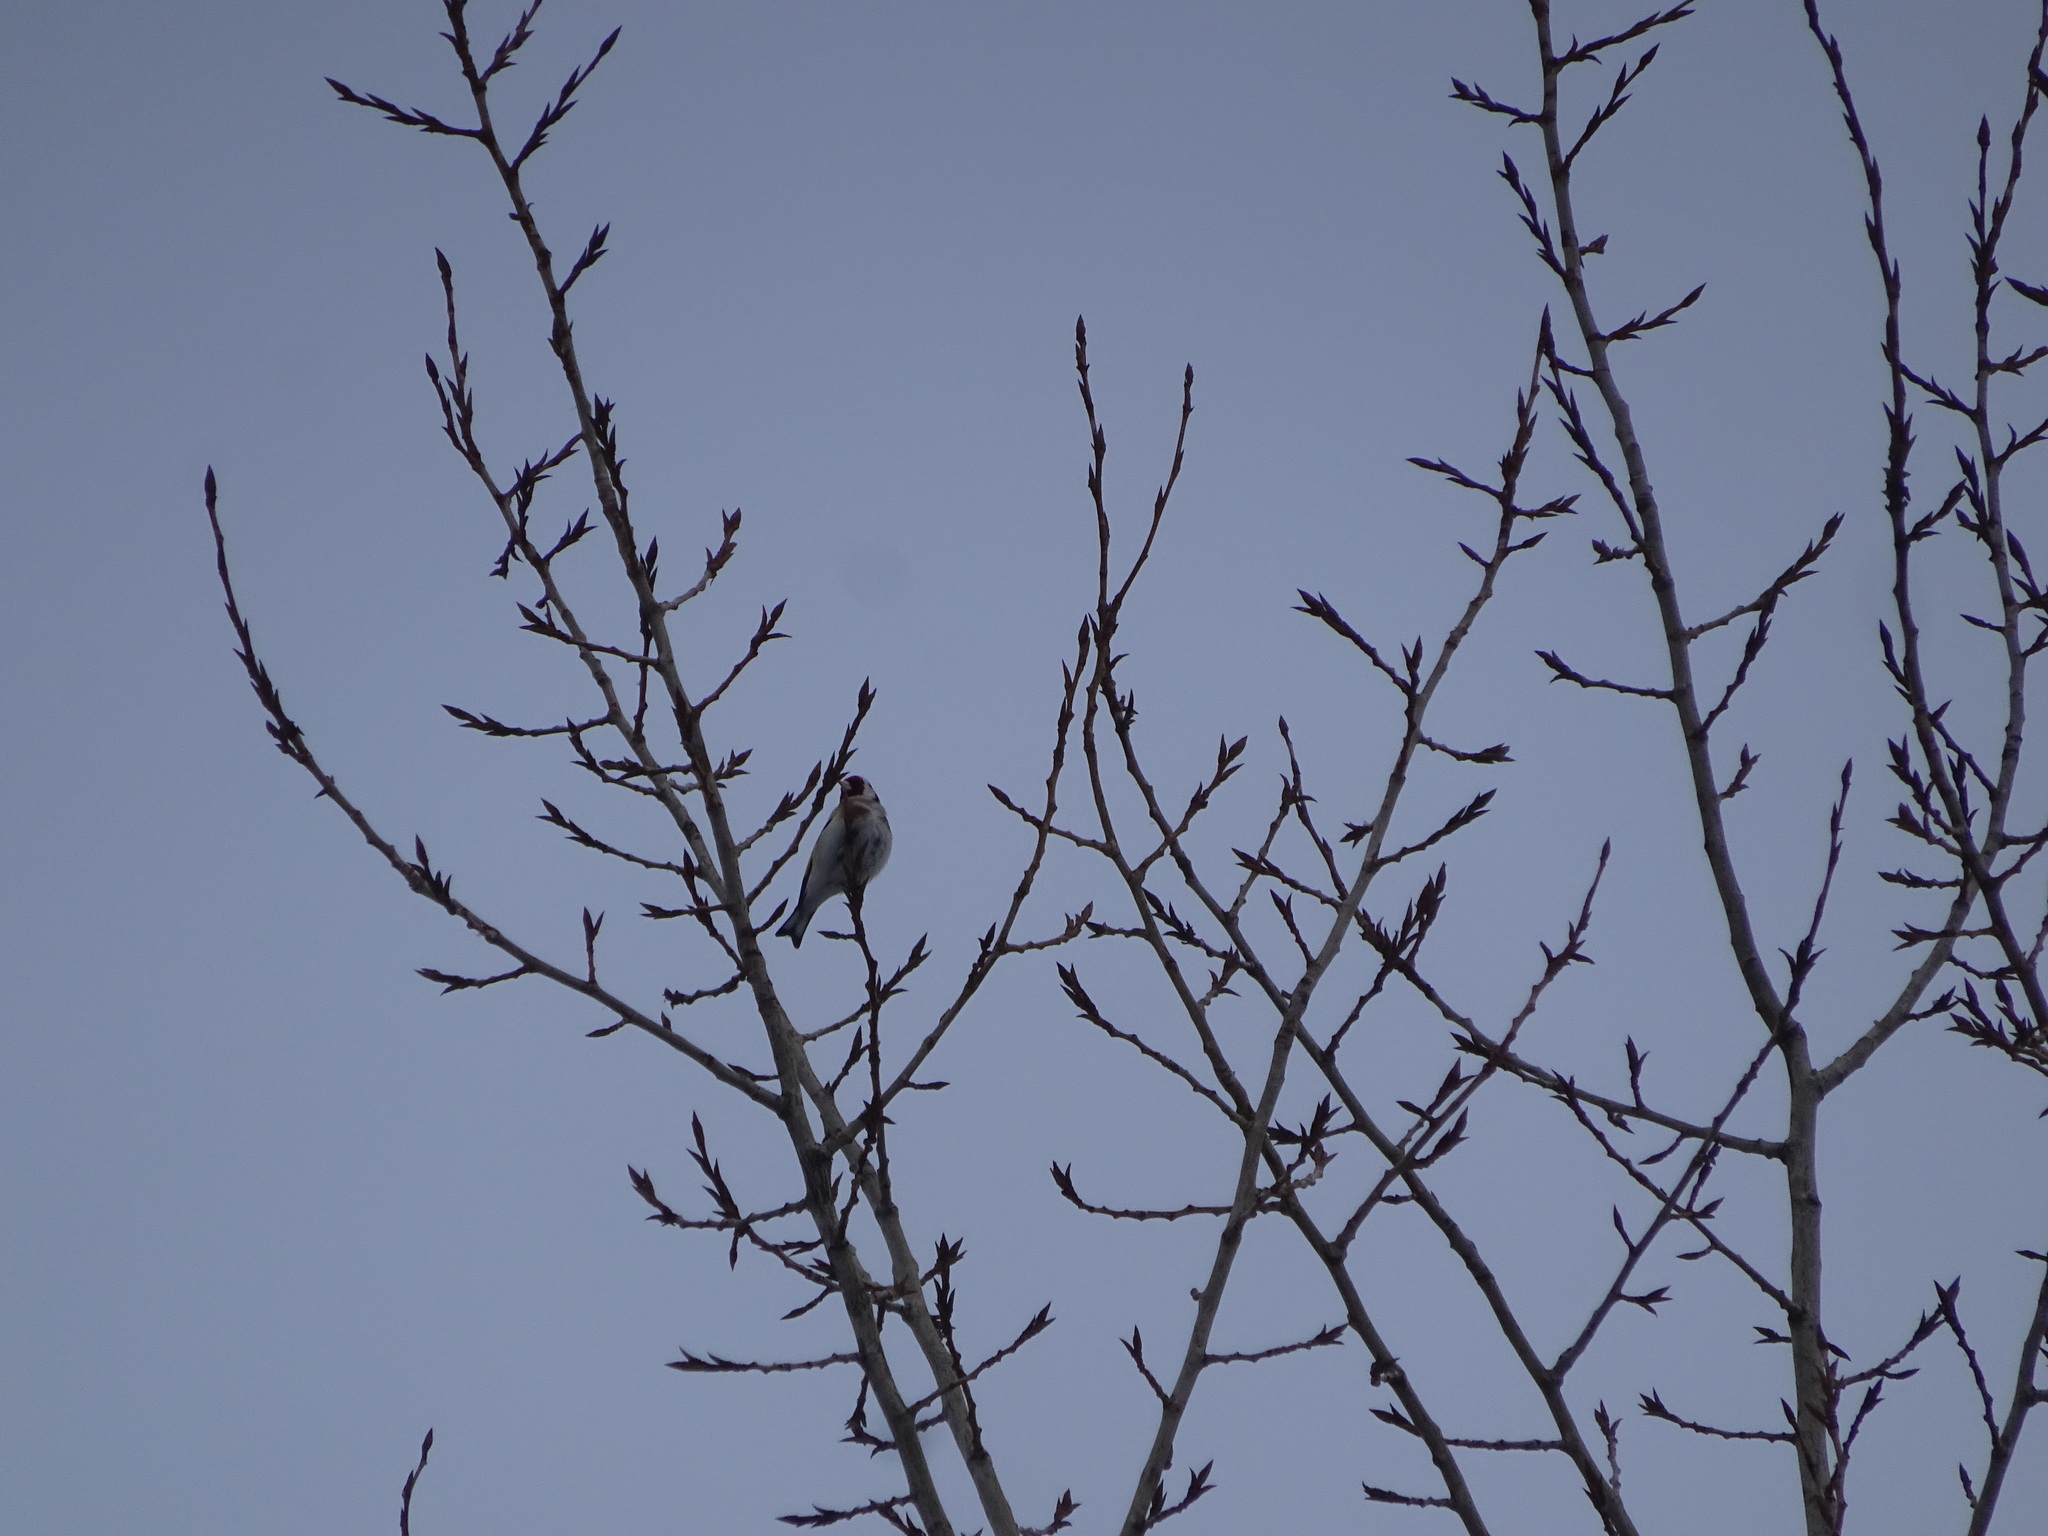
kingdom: Animalia
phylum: Chordata
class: Aves
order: Passeriformes
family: Fringillidae
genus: Carduelis
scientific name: Carduelis carduelis
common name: European goldfinch
